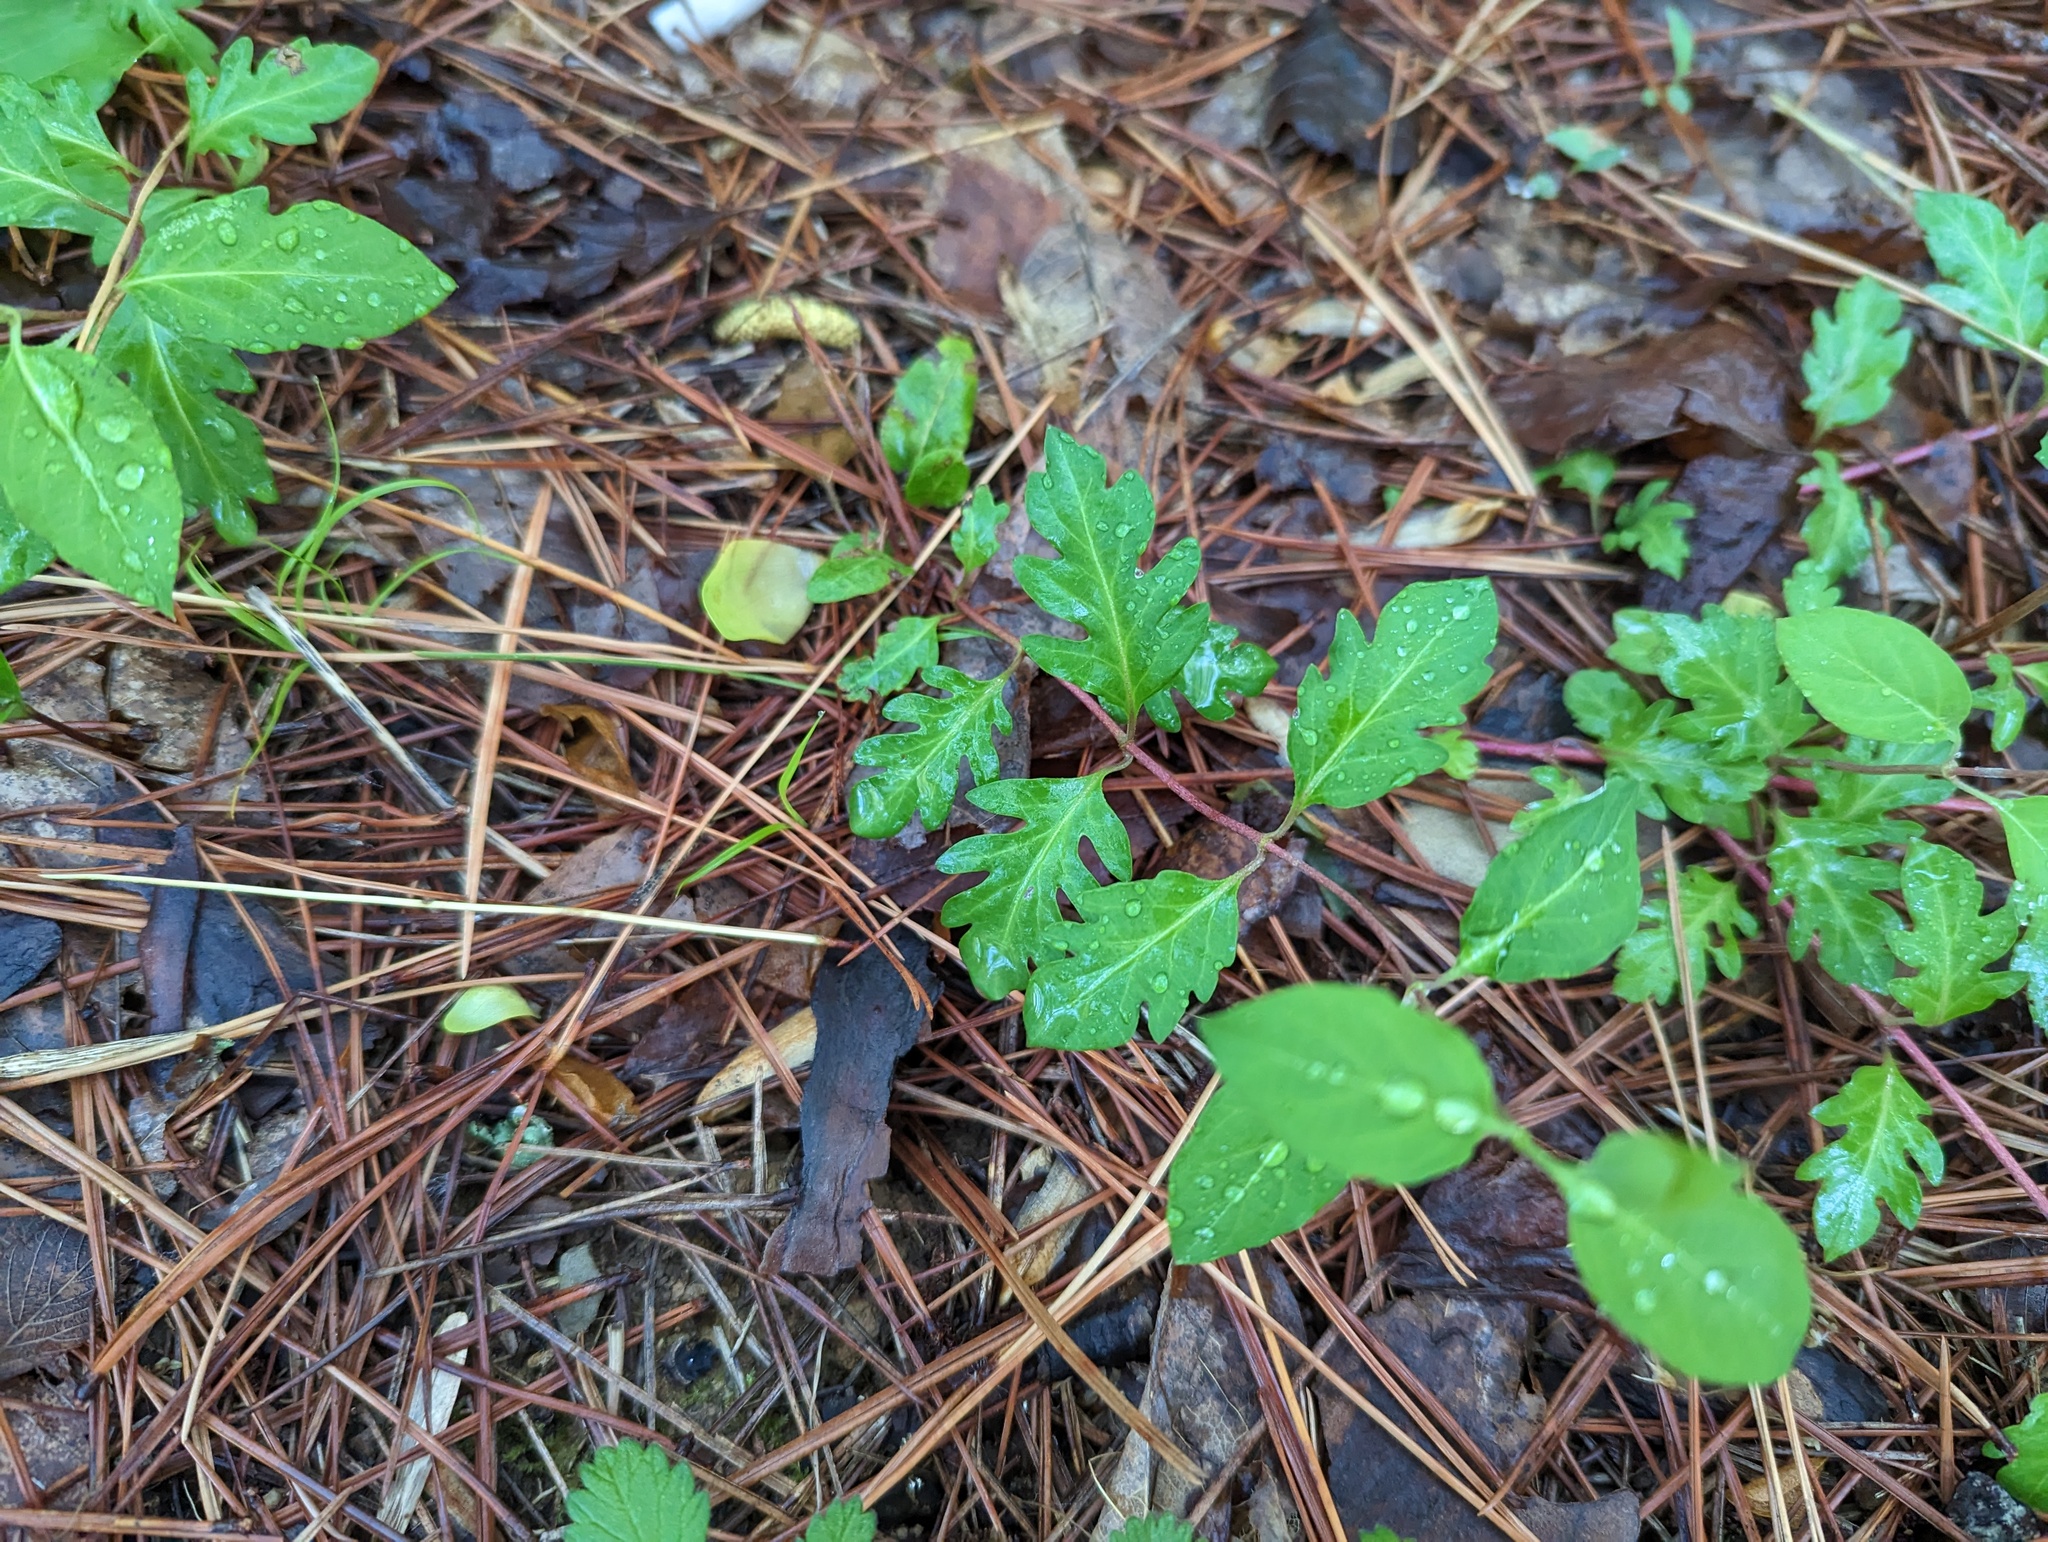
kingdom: Plantae
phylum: Tracheophyta
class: Magnoliopsida
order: Dipsacales
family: Caprifoliaceae
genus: Lonicera
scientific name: Lonicera japonica
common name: Japanese honeysuckle
